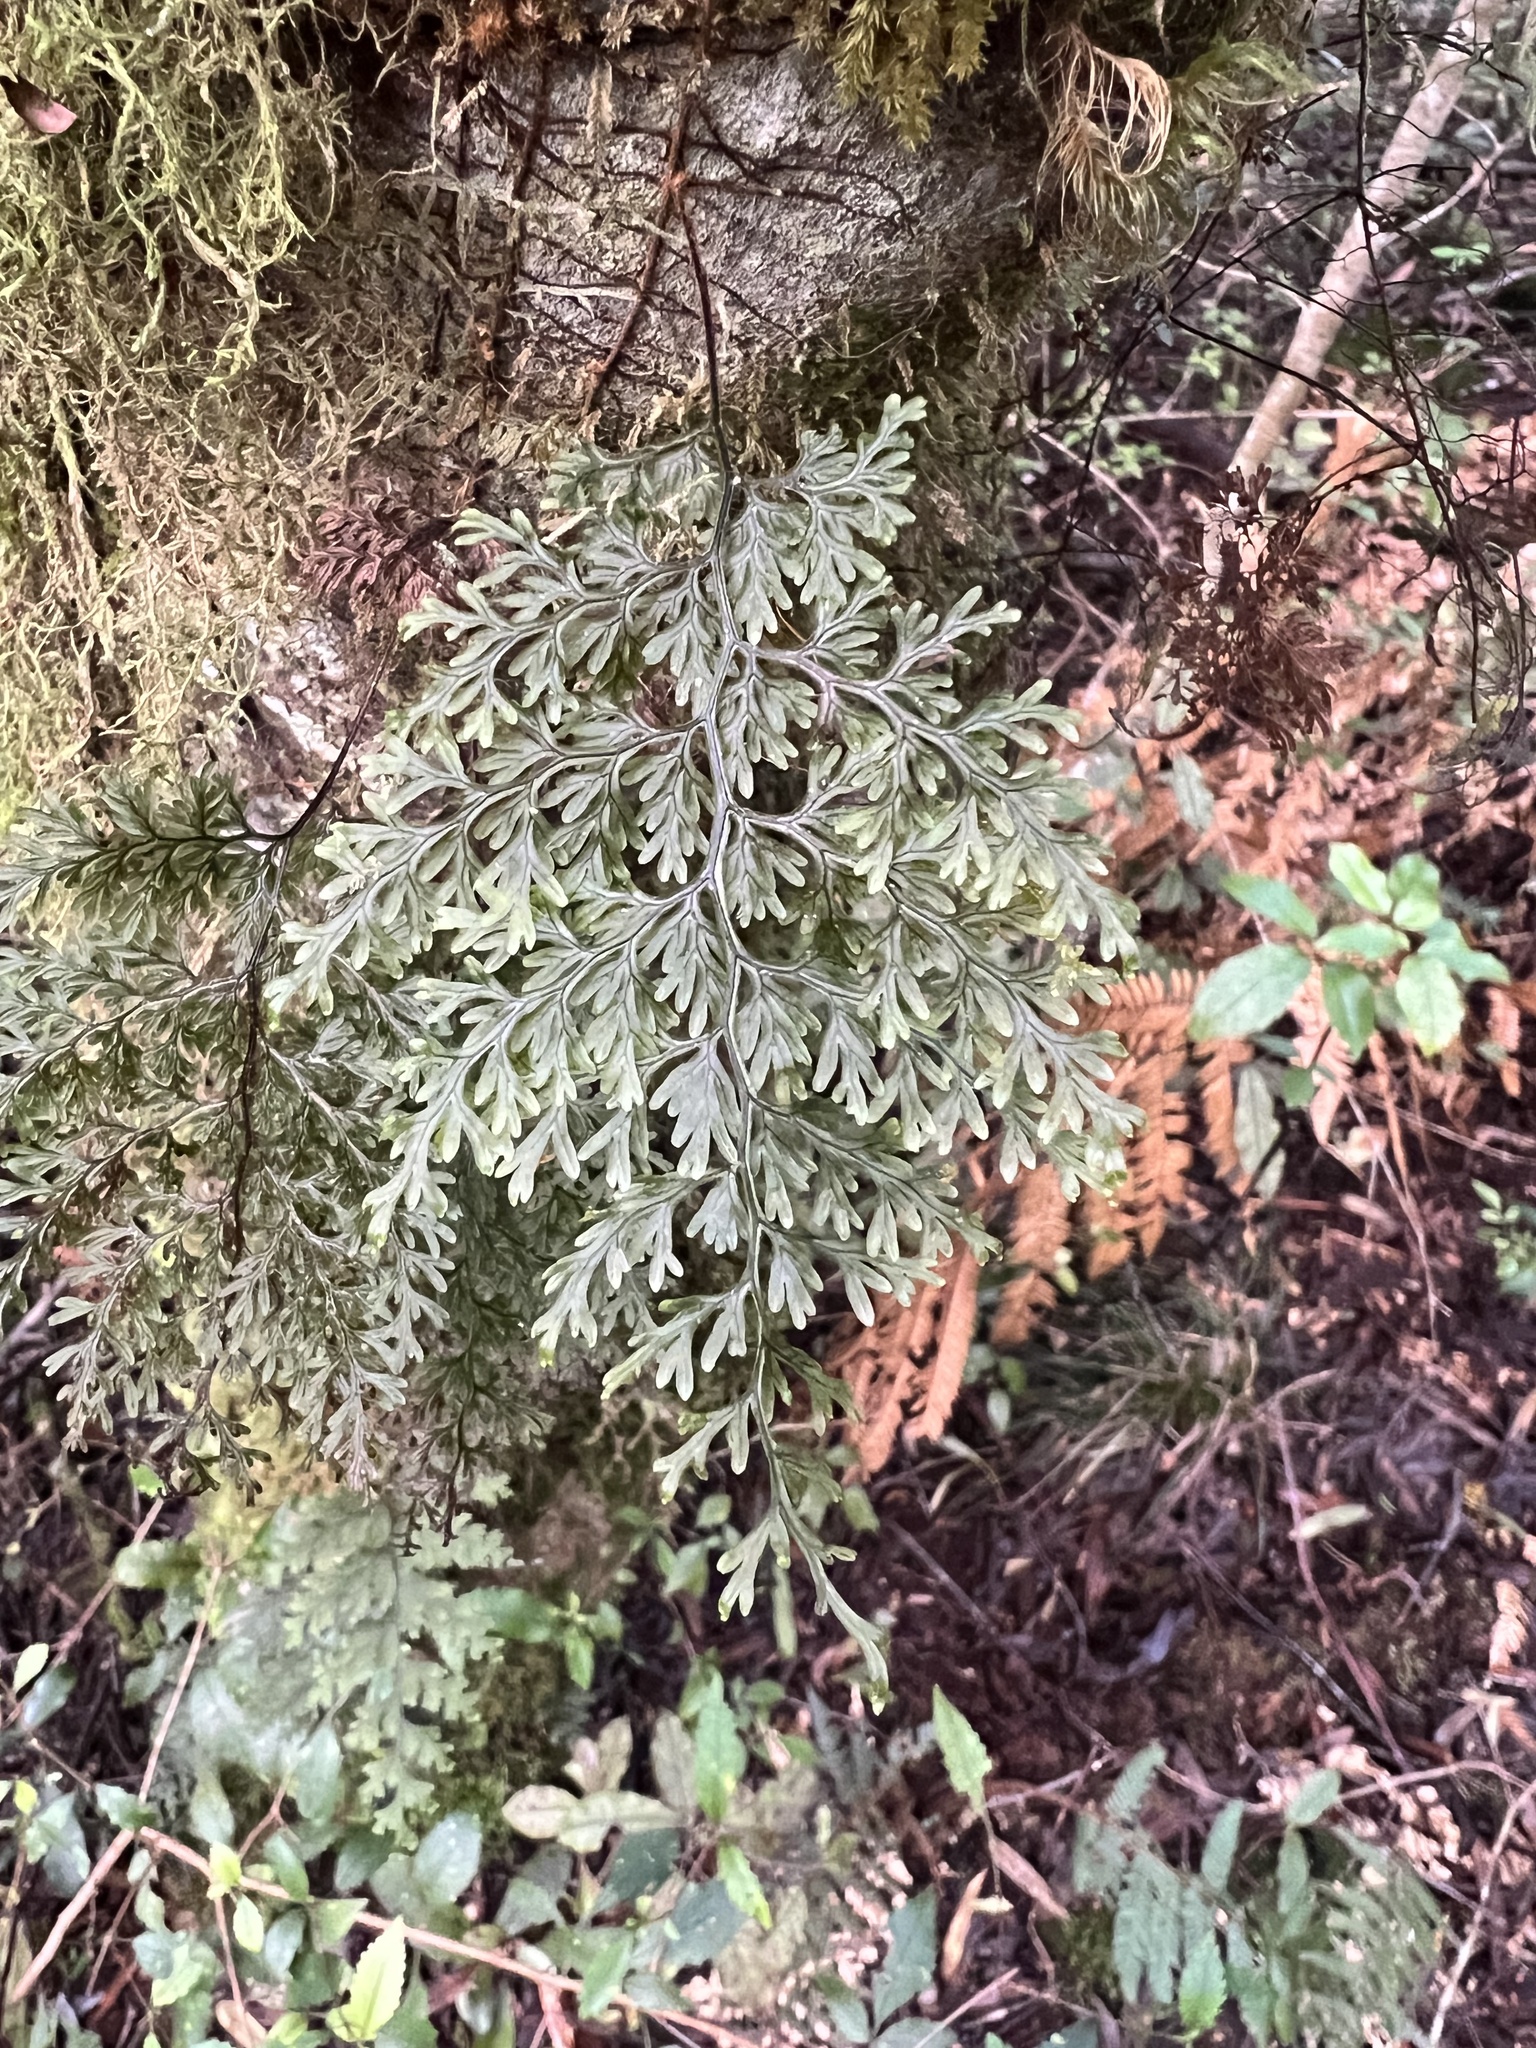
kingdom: Plantae
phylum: Tracheophyta
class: Polypodiopsida
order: Hymenophyllales
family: Hymenophyllaceae
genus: Hymenophyllum
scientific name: Hymenophyllum villosum
